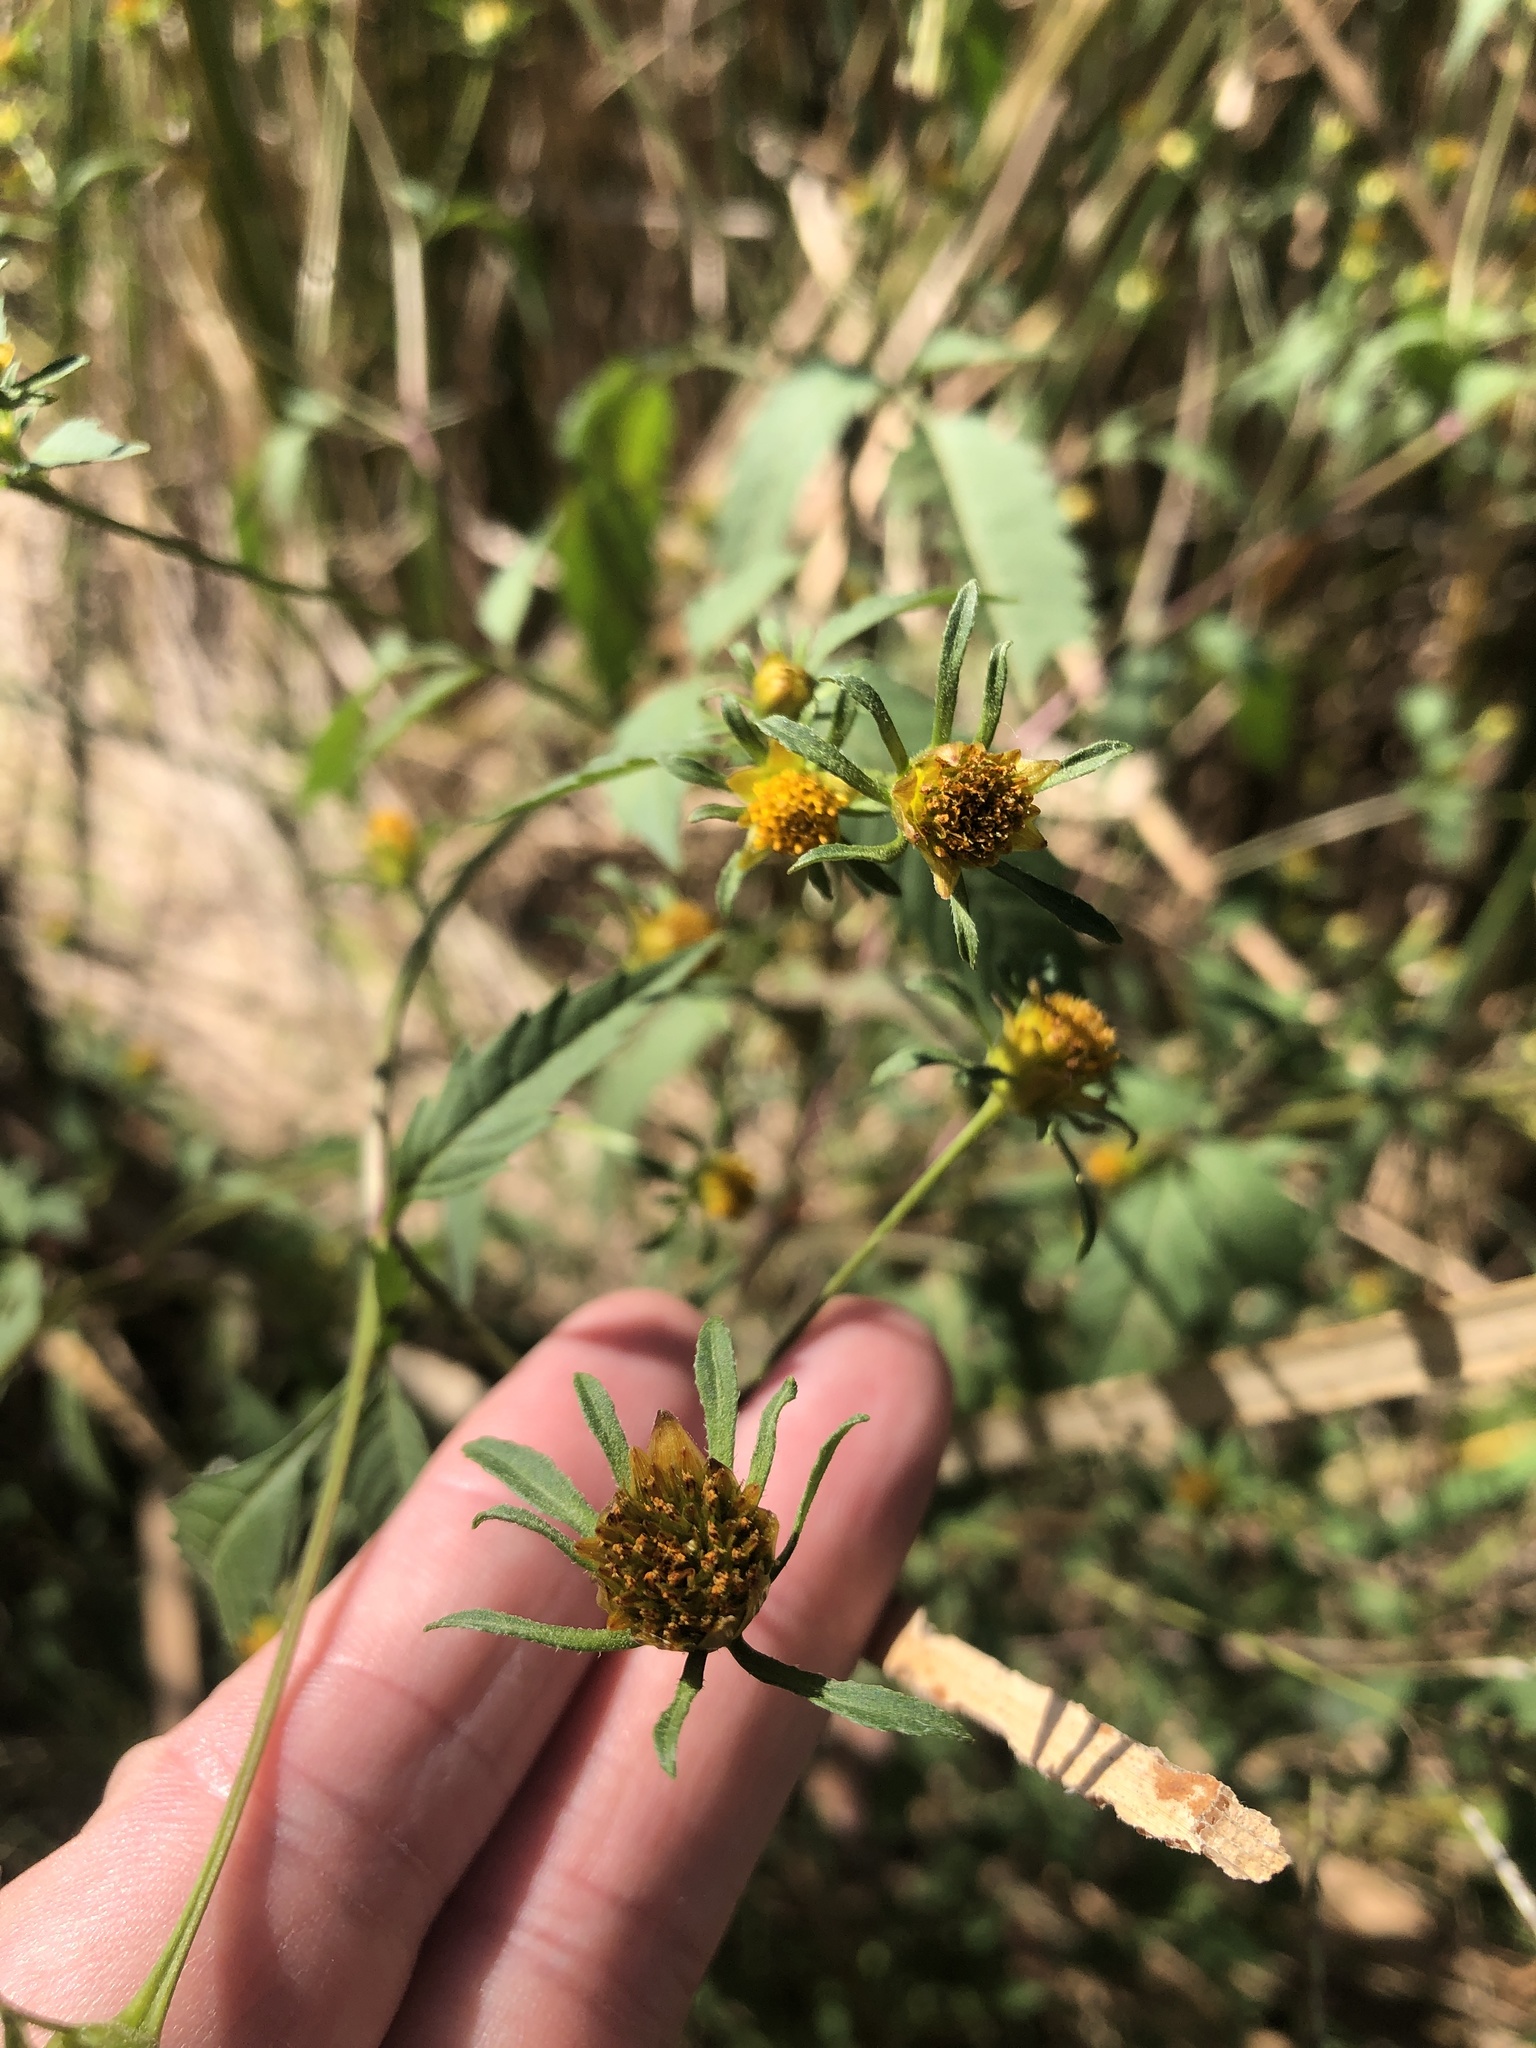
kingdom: Plantae
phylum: Tracheophyta
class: Magnoliopsida
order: Asterales
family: Asteraceae
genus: Bidens
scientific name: Bidens frondosa
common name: Beggarticks
